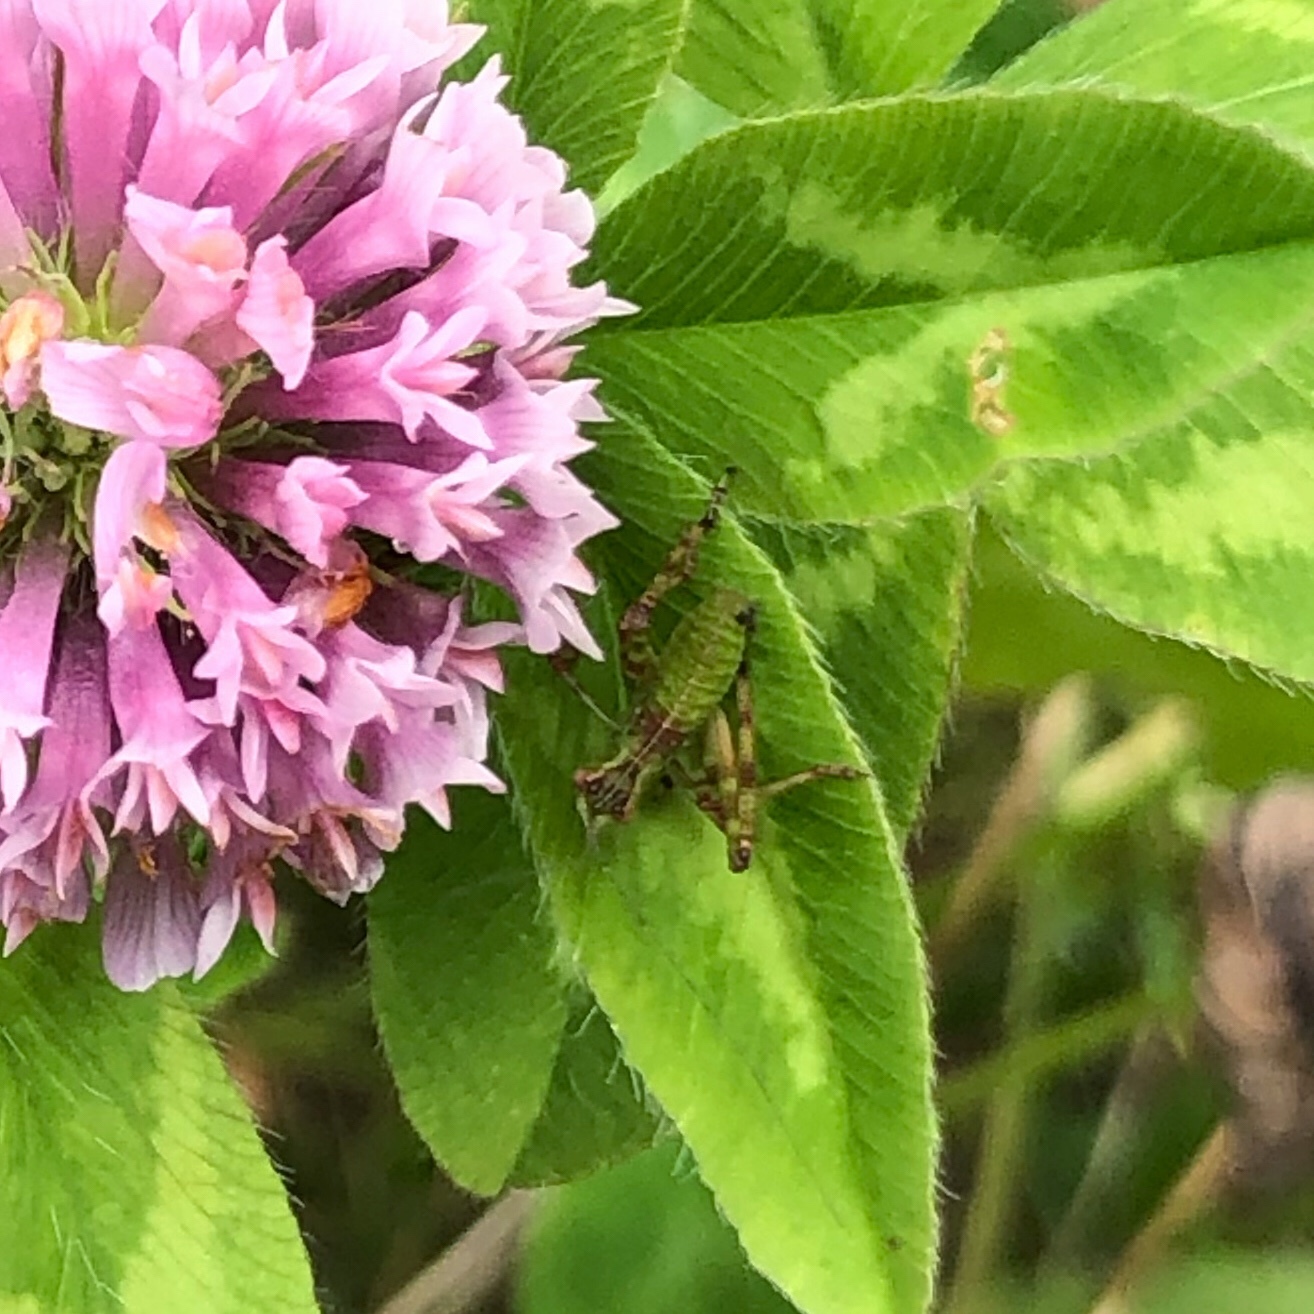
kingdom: Animalia
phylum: Arthropoda
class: Insecta
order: Orthoptera
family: Tettigoniidae
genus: Caedicia
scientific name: Caedicia simplex
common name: Common garden katydid
